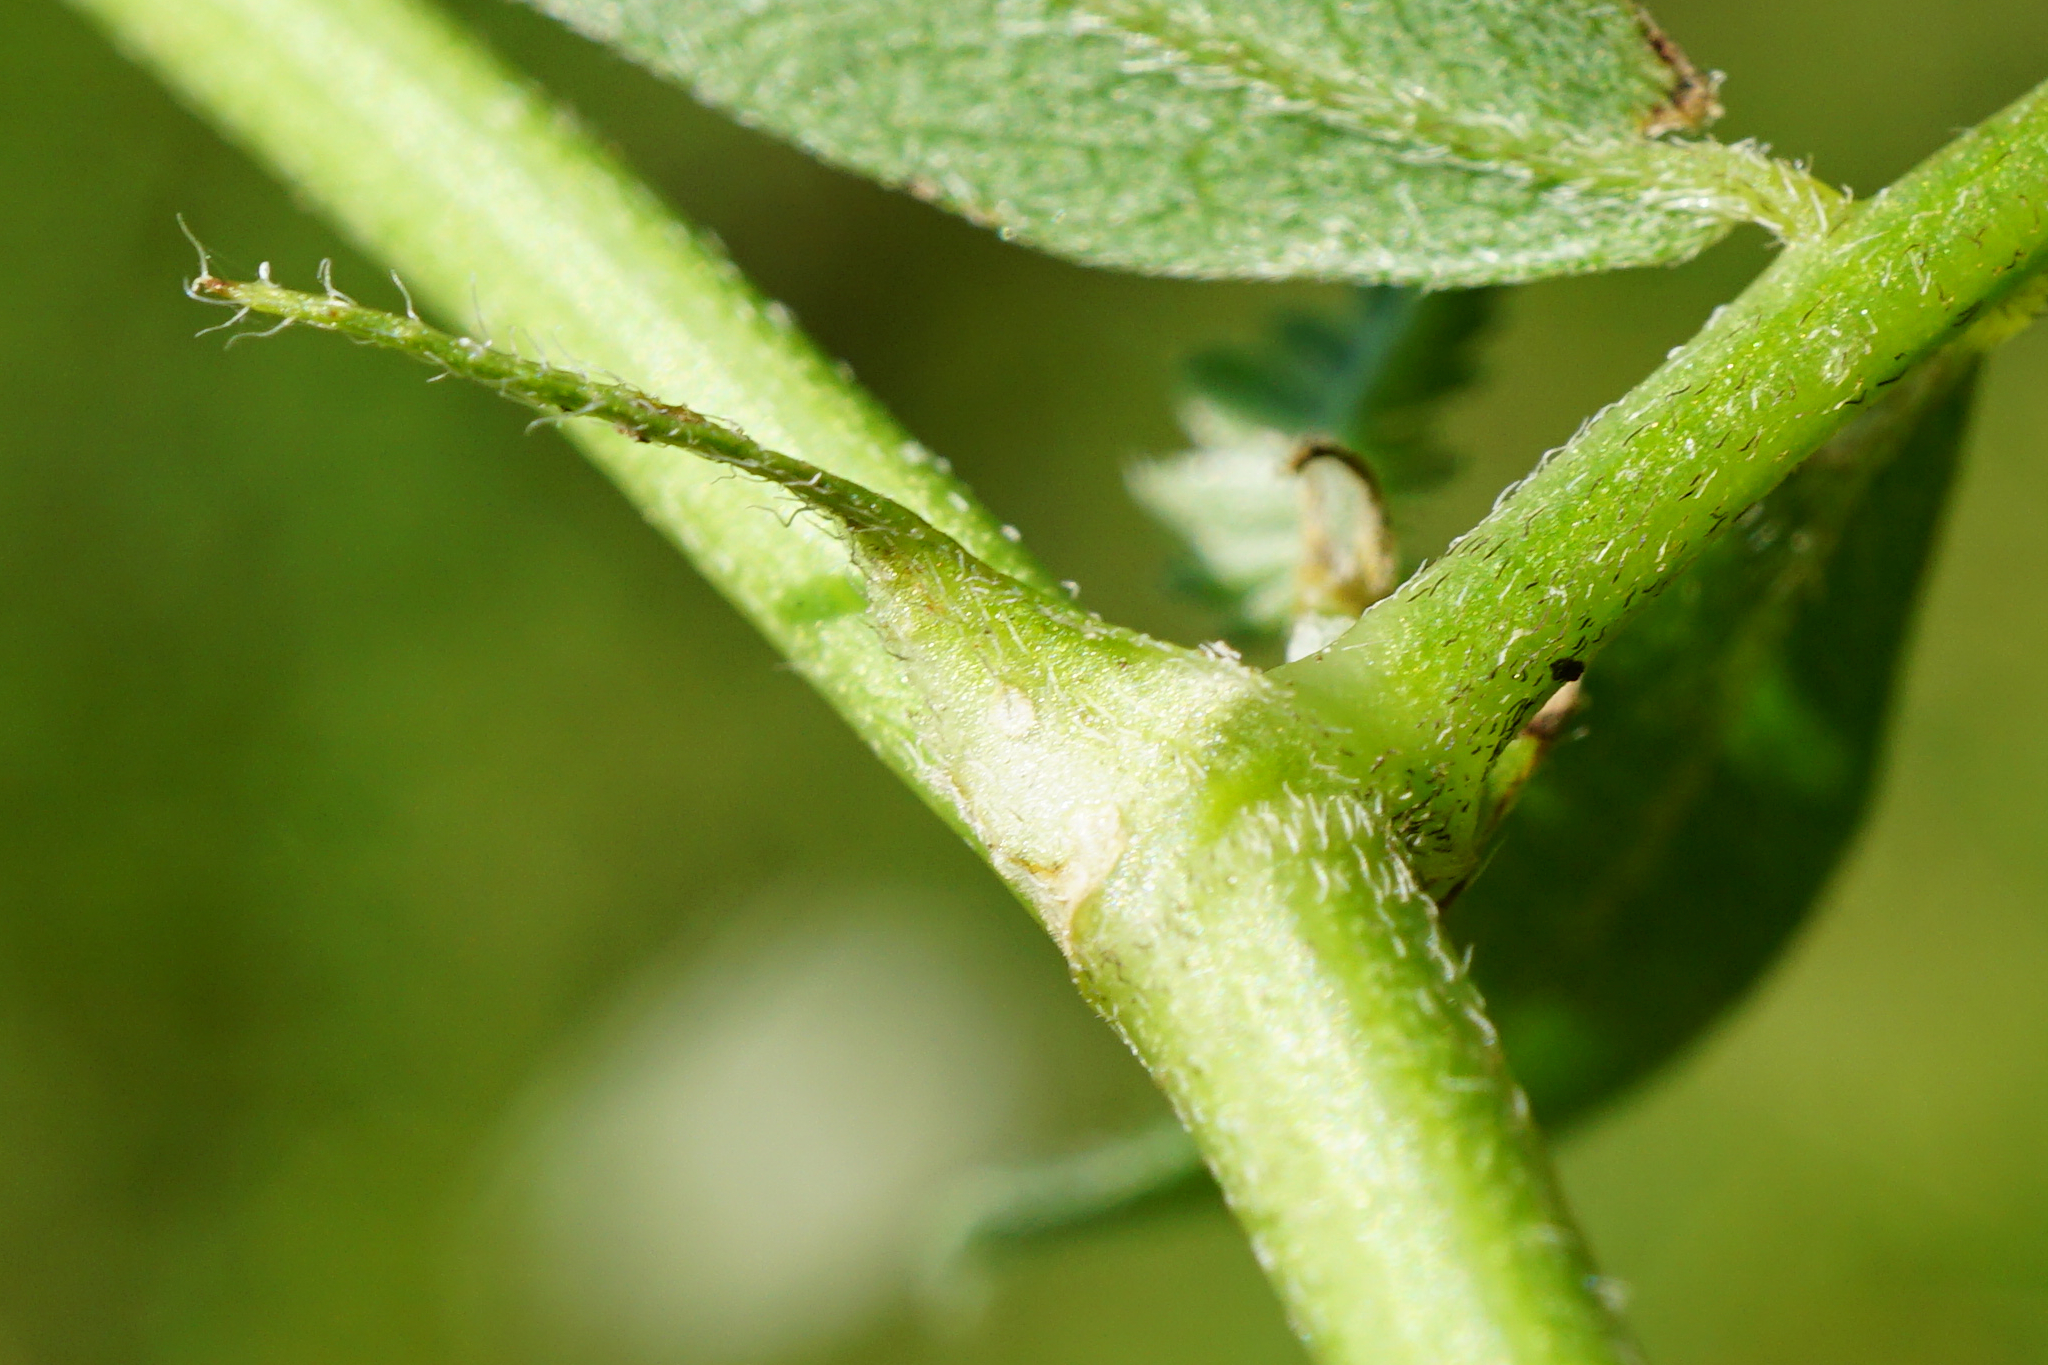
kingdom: Plantae
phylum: Tracheophyta
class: Magnoliopsida
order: Fabales
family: Fabaceae
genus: Astragalus
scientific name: Astragalus cicer
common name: Chick-pea milk-vetch
